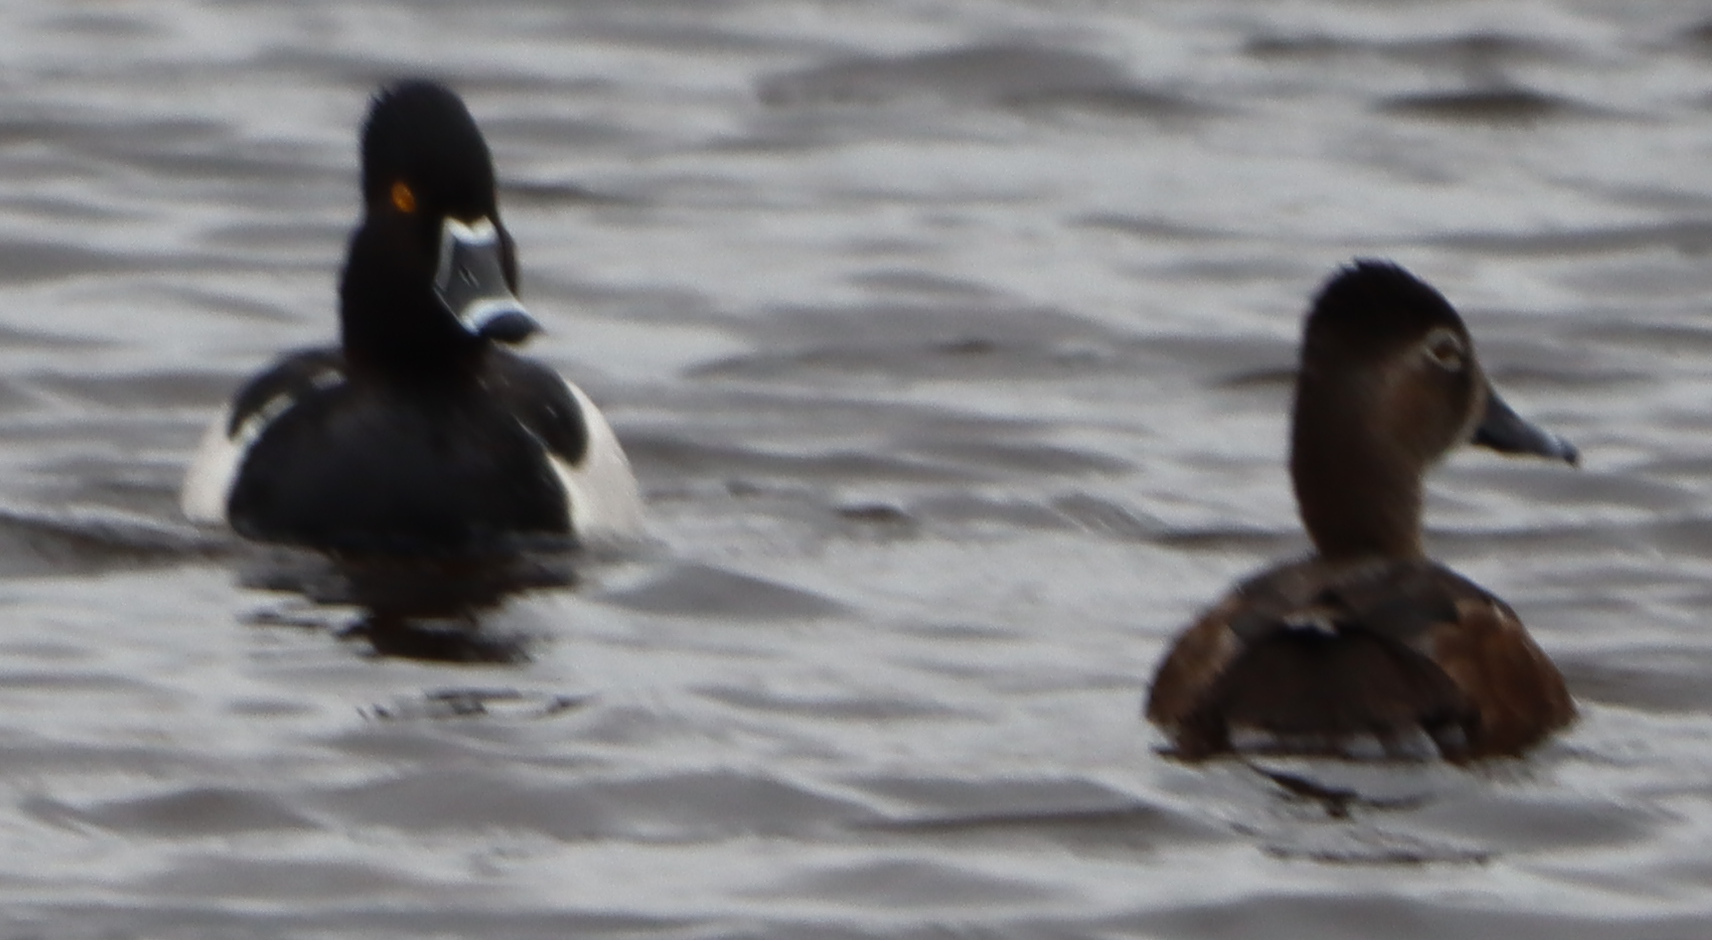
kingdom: Animalia
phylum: Chordata
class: Aves
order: Anseriformes
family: Anatidae
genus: Aythya
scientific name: Aythya collaris
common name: Ring-necked duck
